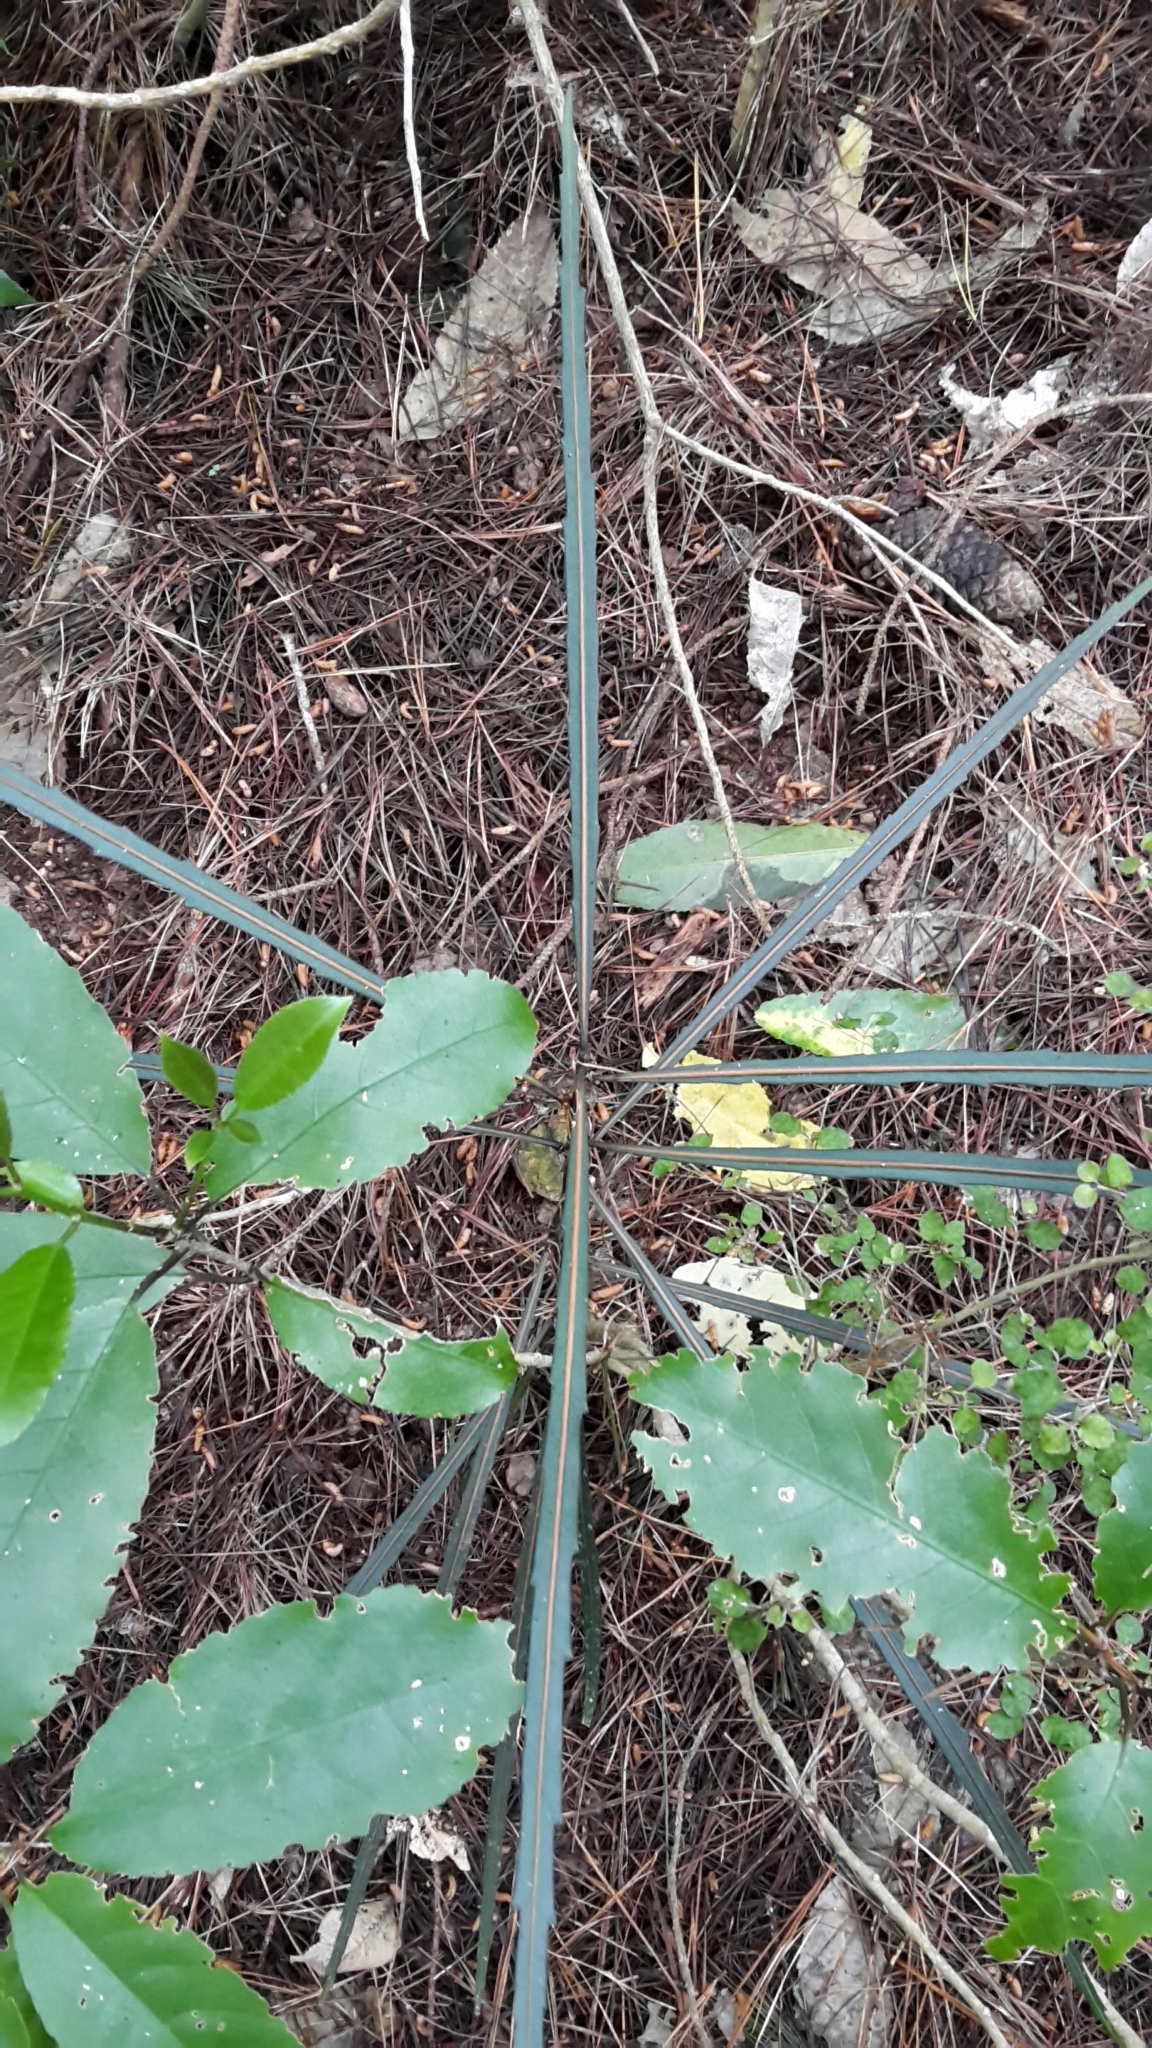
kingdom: Plantae
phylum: Tracheophyta
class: Magnoliopsida
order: Apiales
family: Araliaceae
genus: Pseudopanax
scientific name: Pseudopanax crassifolius
